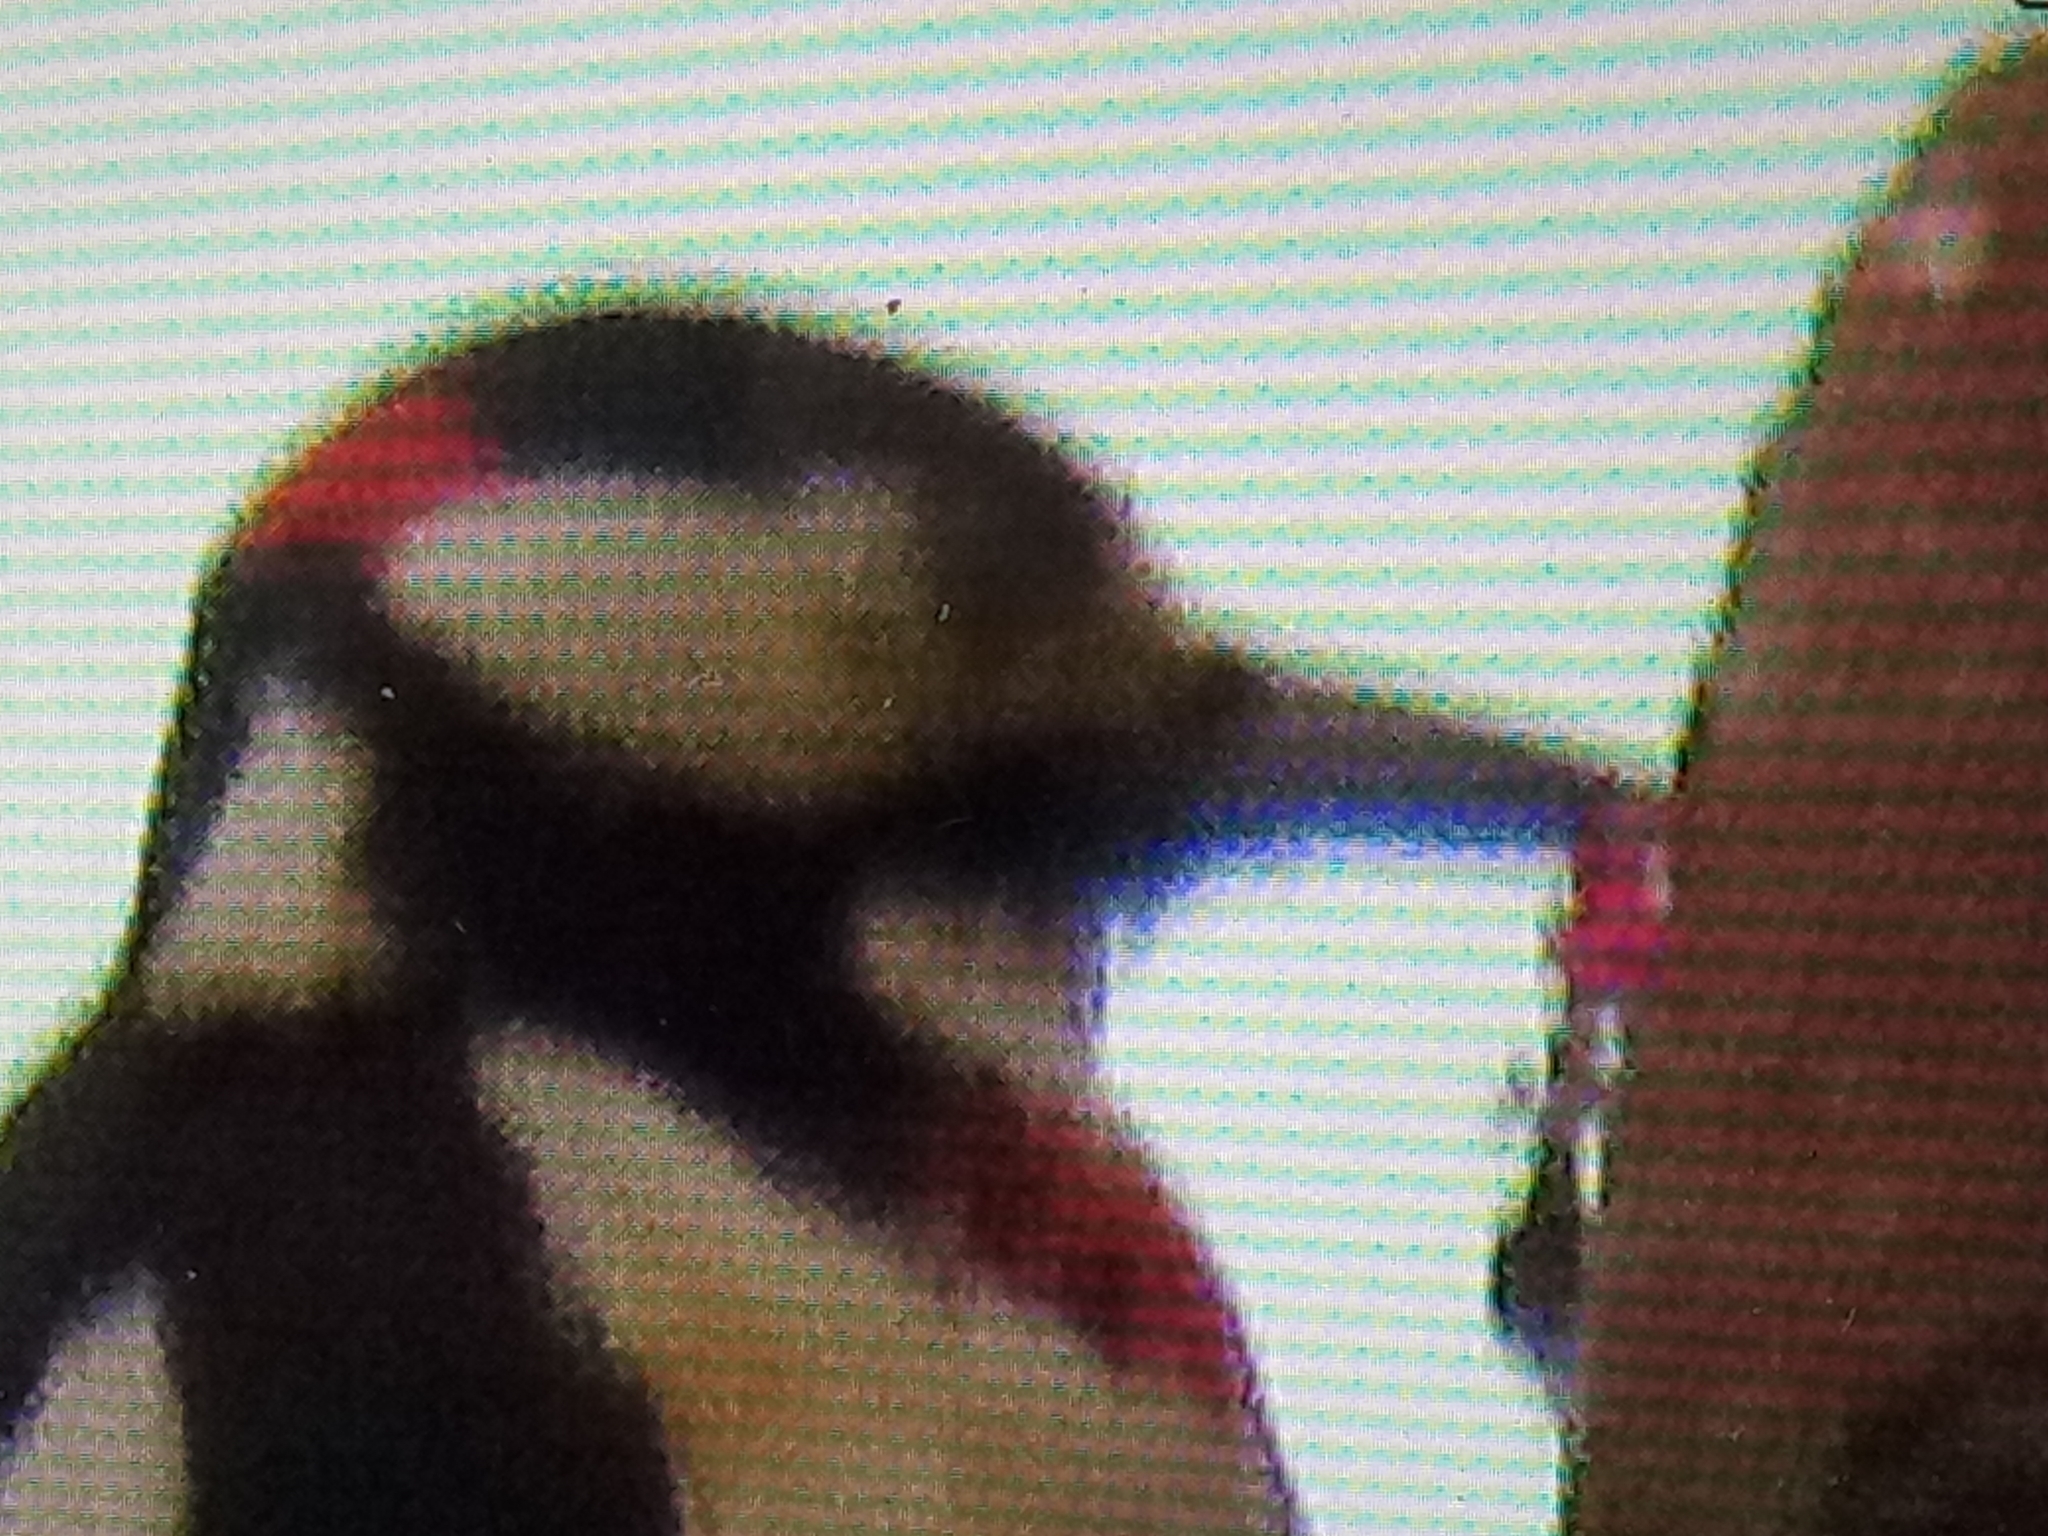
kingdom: Animalia
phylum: Chordata
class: Aves
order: Piciformes
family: Picidae
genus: Dendrocopos
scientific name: Dendrocopos major
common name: Great spotted woodpecker
